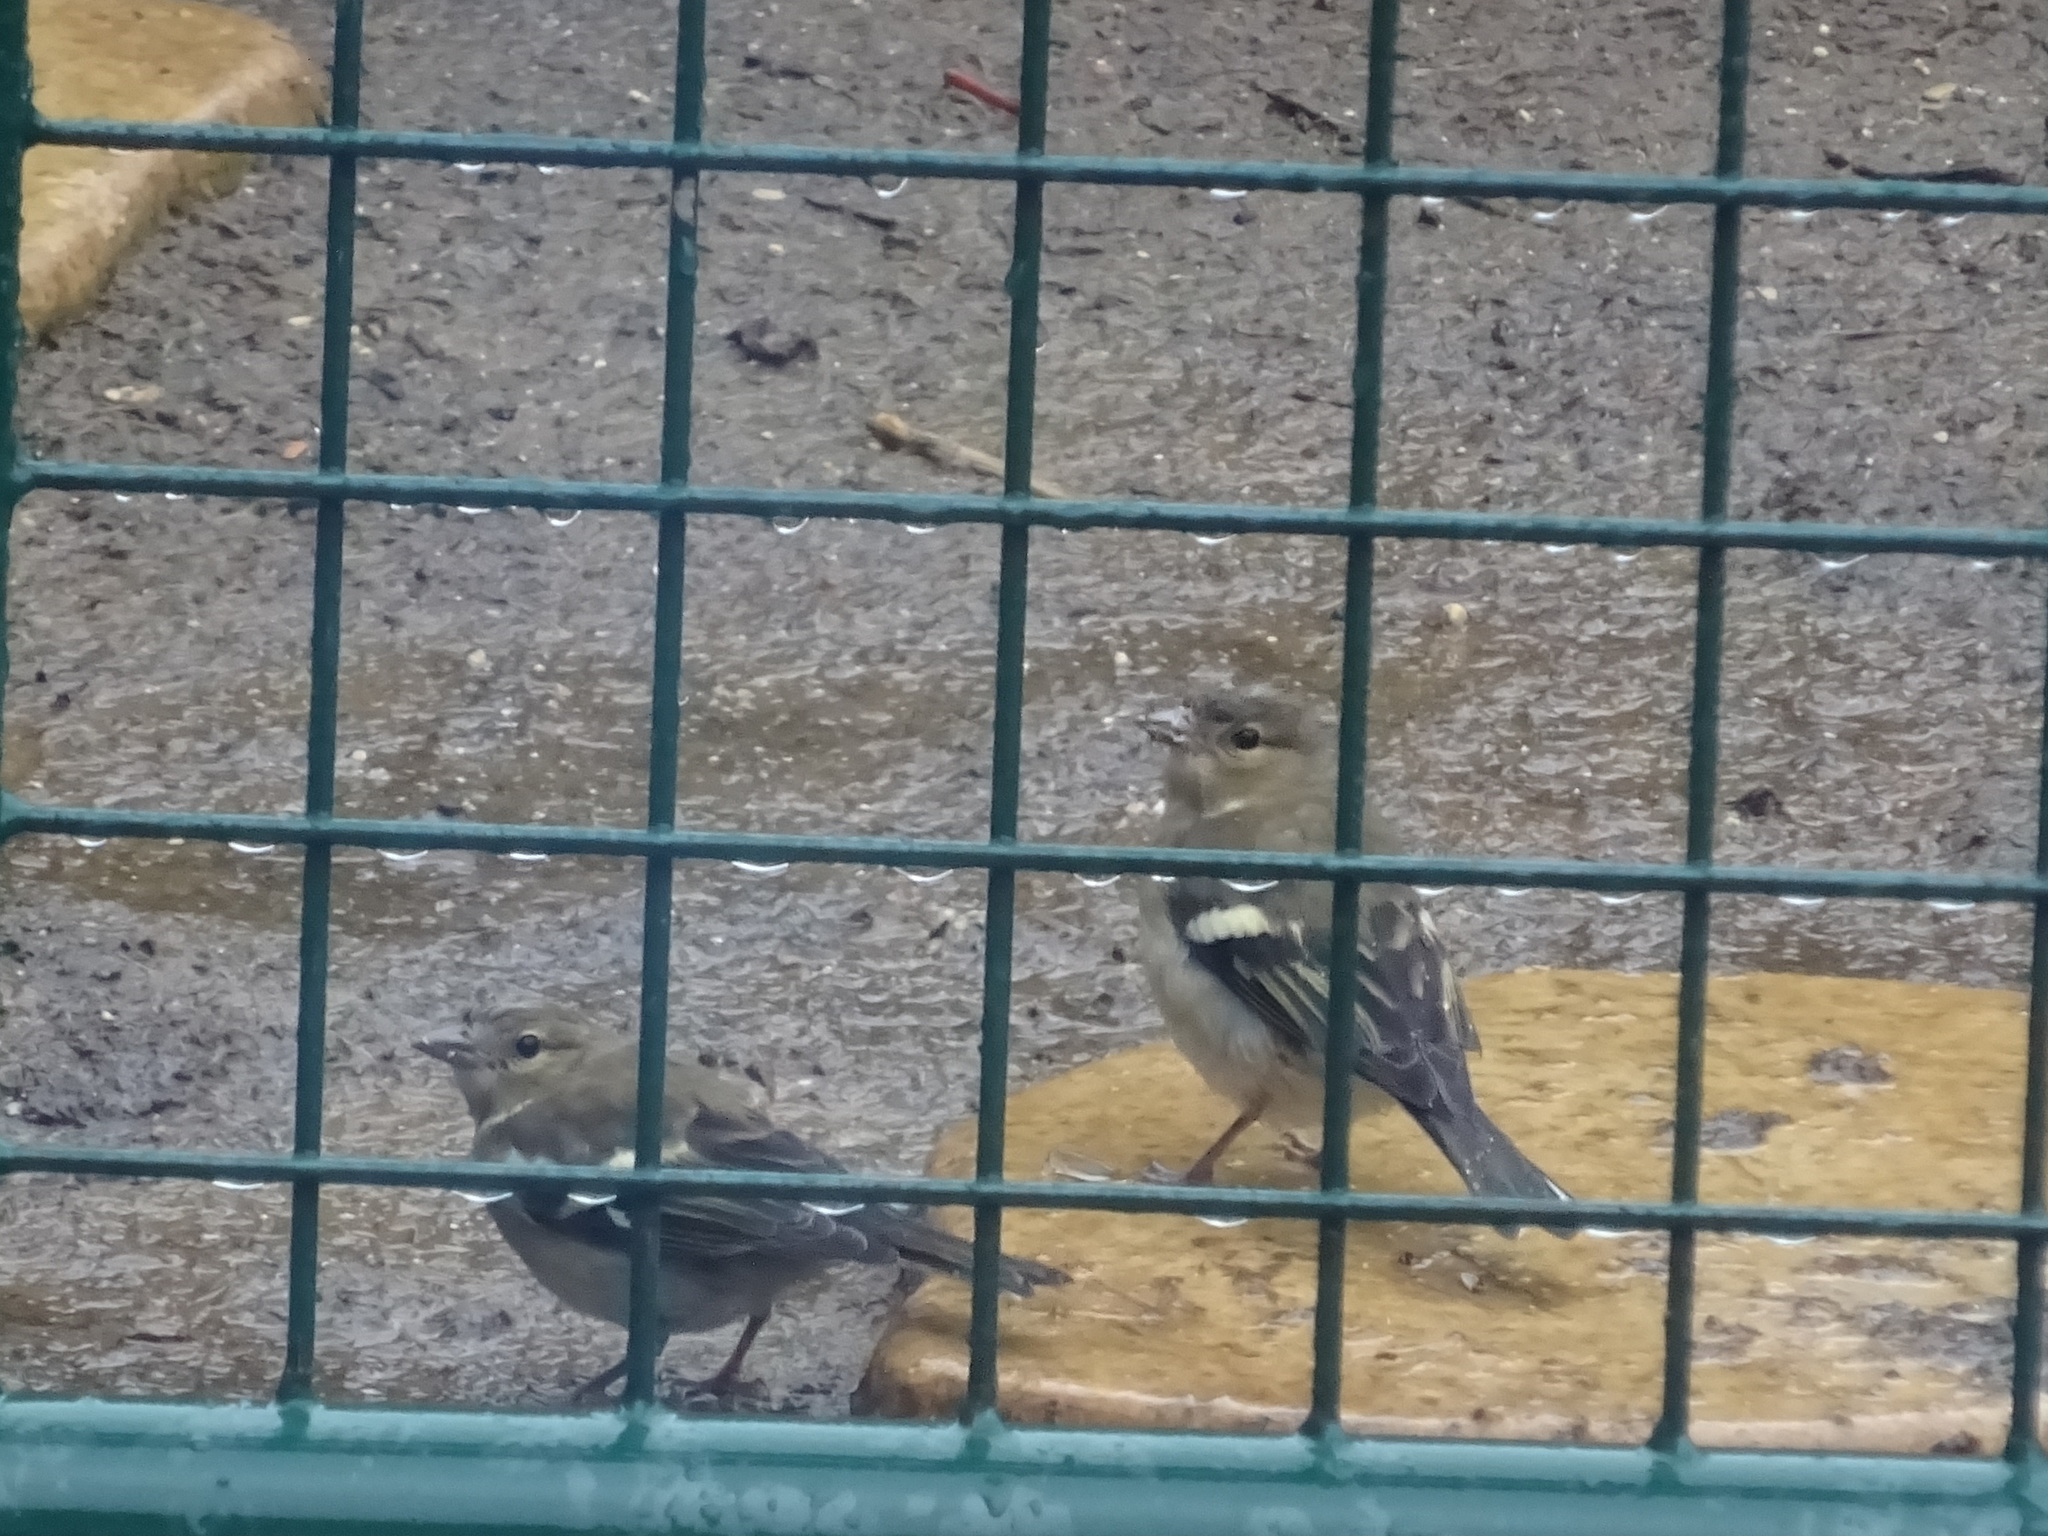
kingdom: Animalia
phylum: Chordata
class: Aves
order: Passeriformes
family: Fringillidae
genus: Fringilla
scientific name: Fringilla coelebs
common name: Common chaffinch
